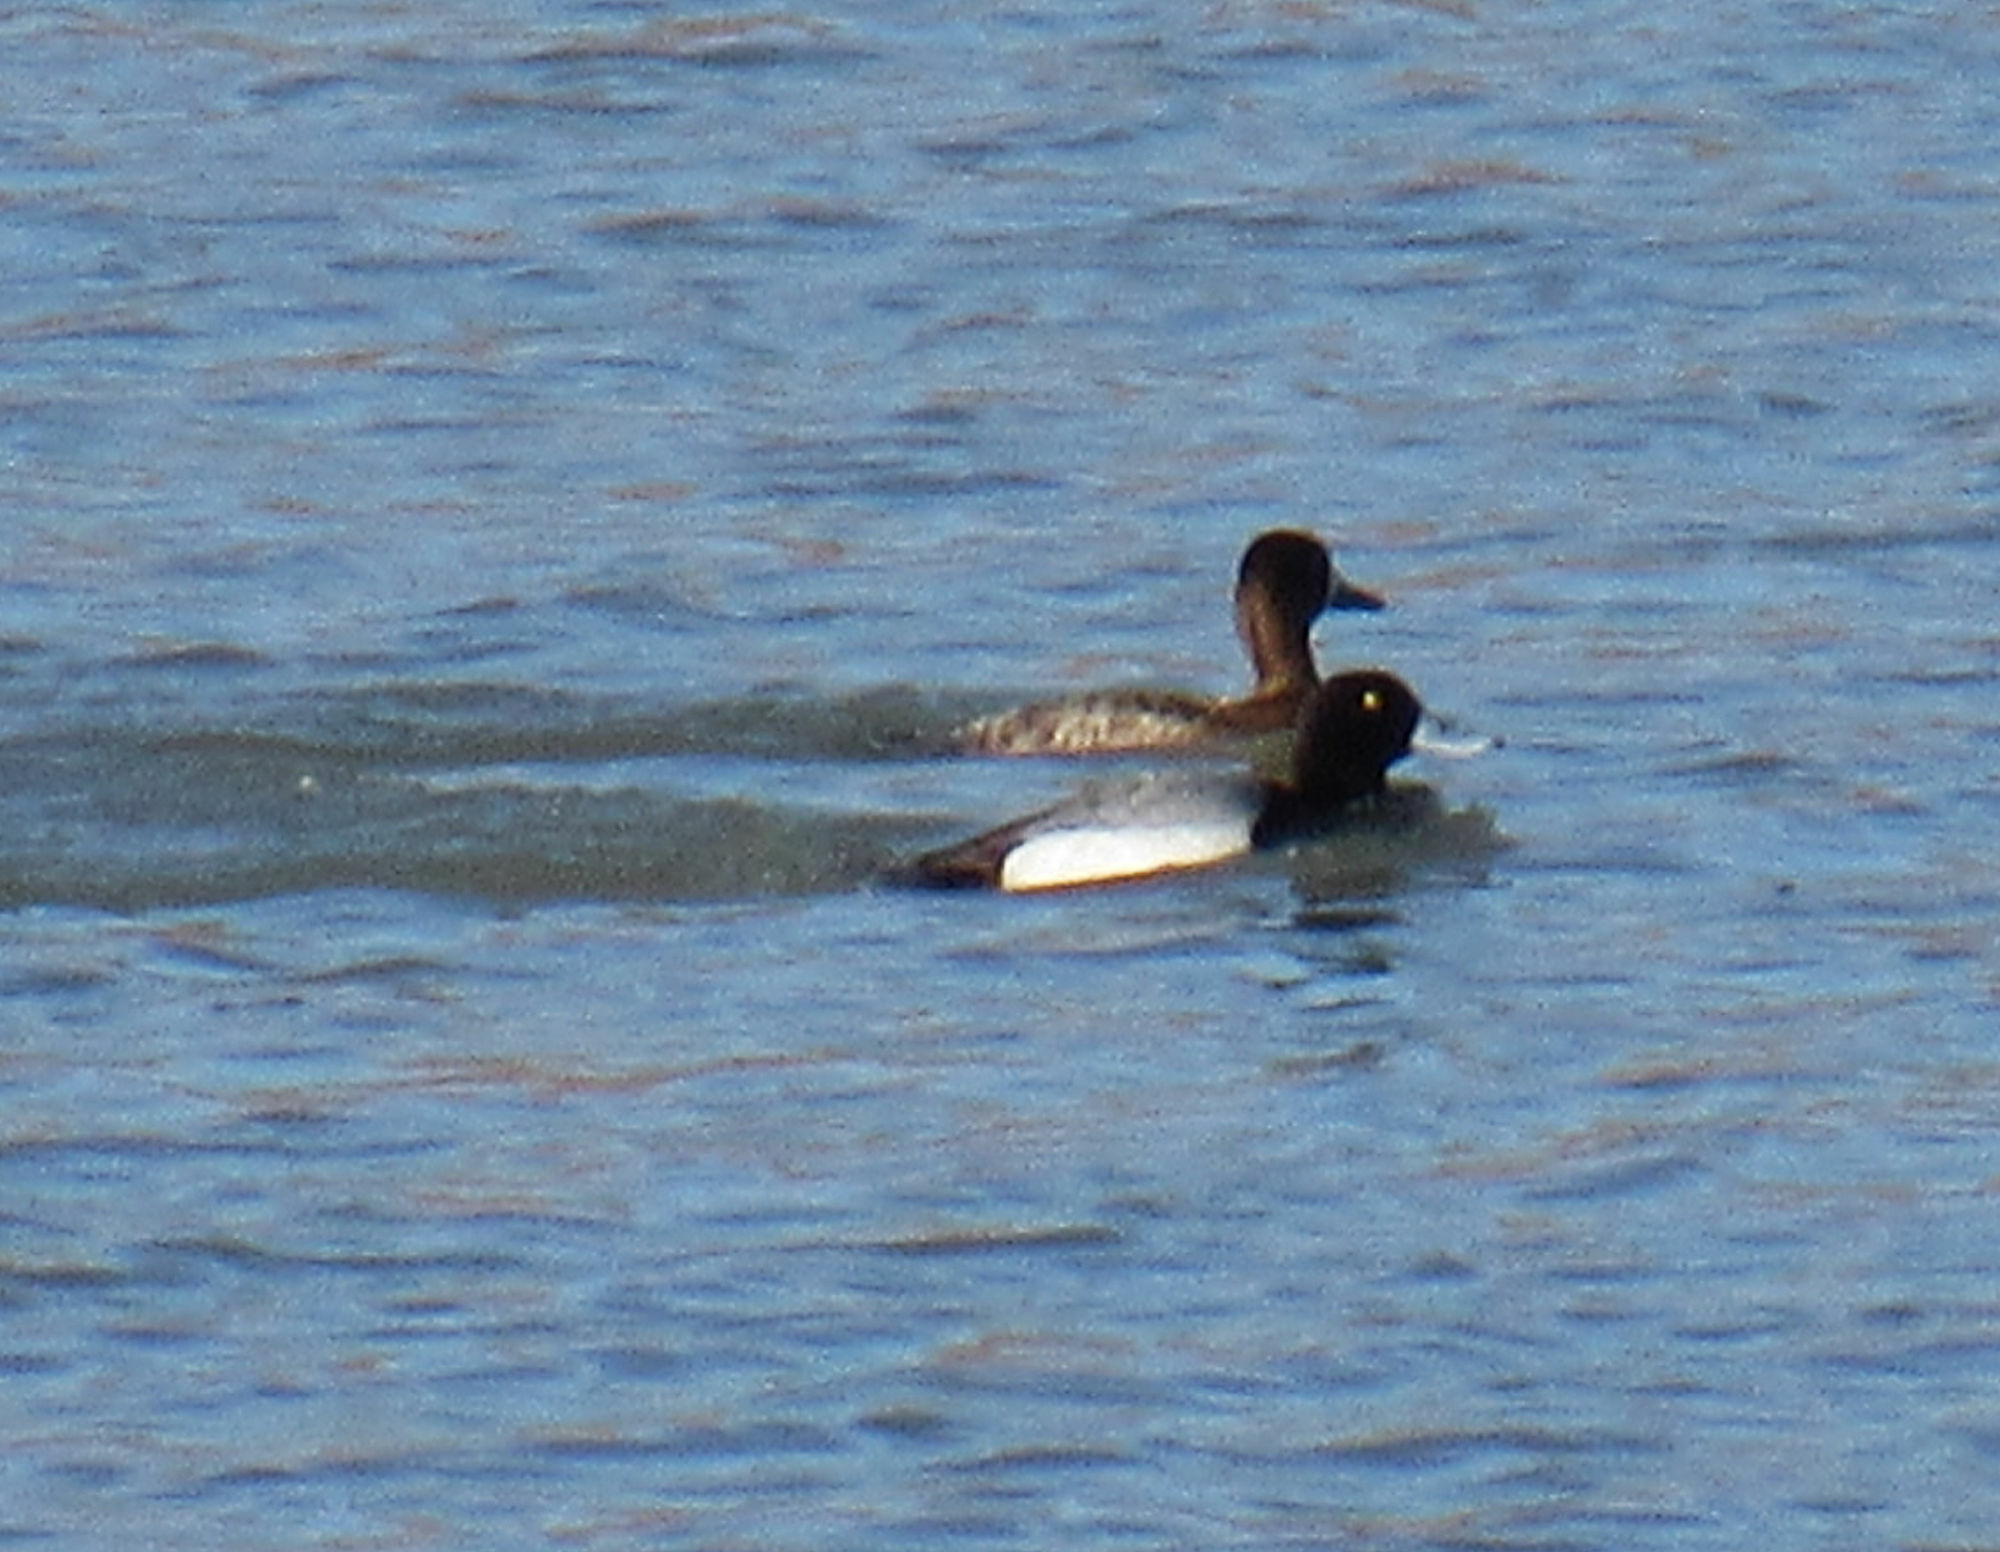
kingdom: Animalia
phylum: Chordata
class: Aves
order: Anseriformes
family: Anatidae
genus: Aythya
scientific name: Aythya affinis
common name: Lesser scaup
